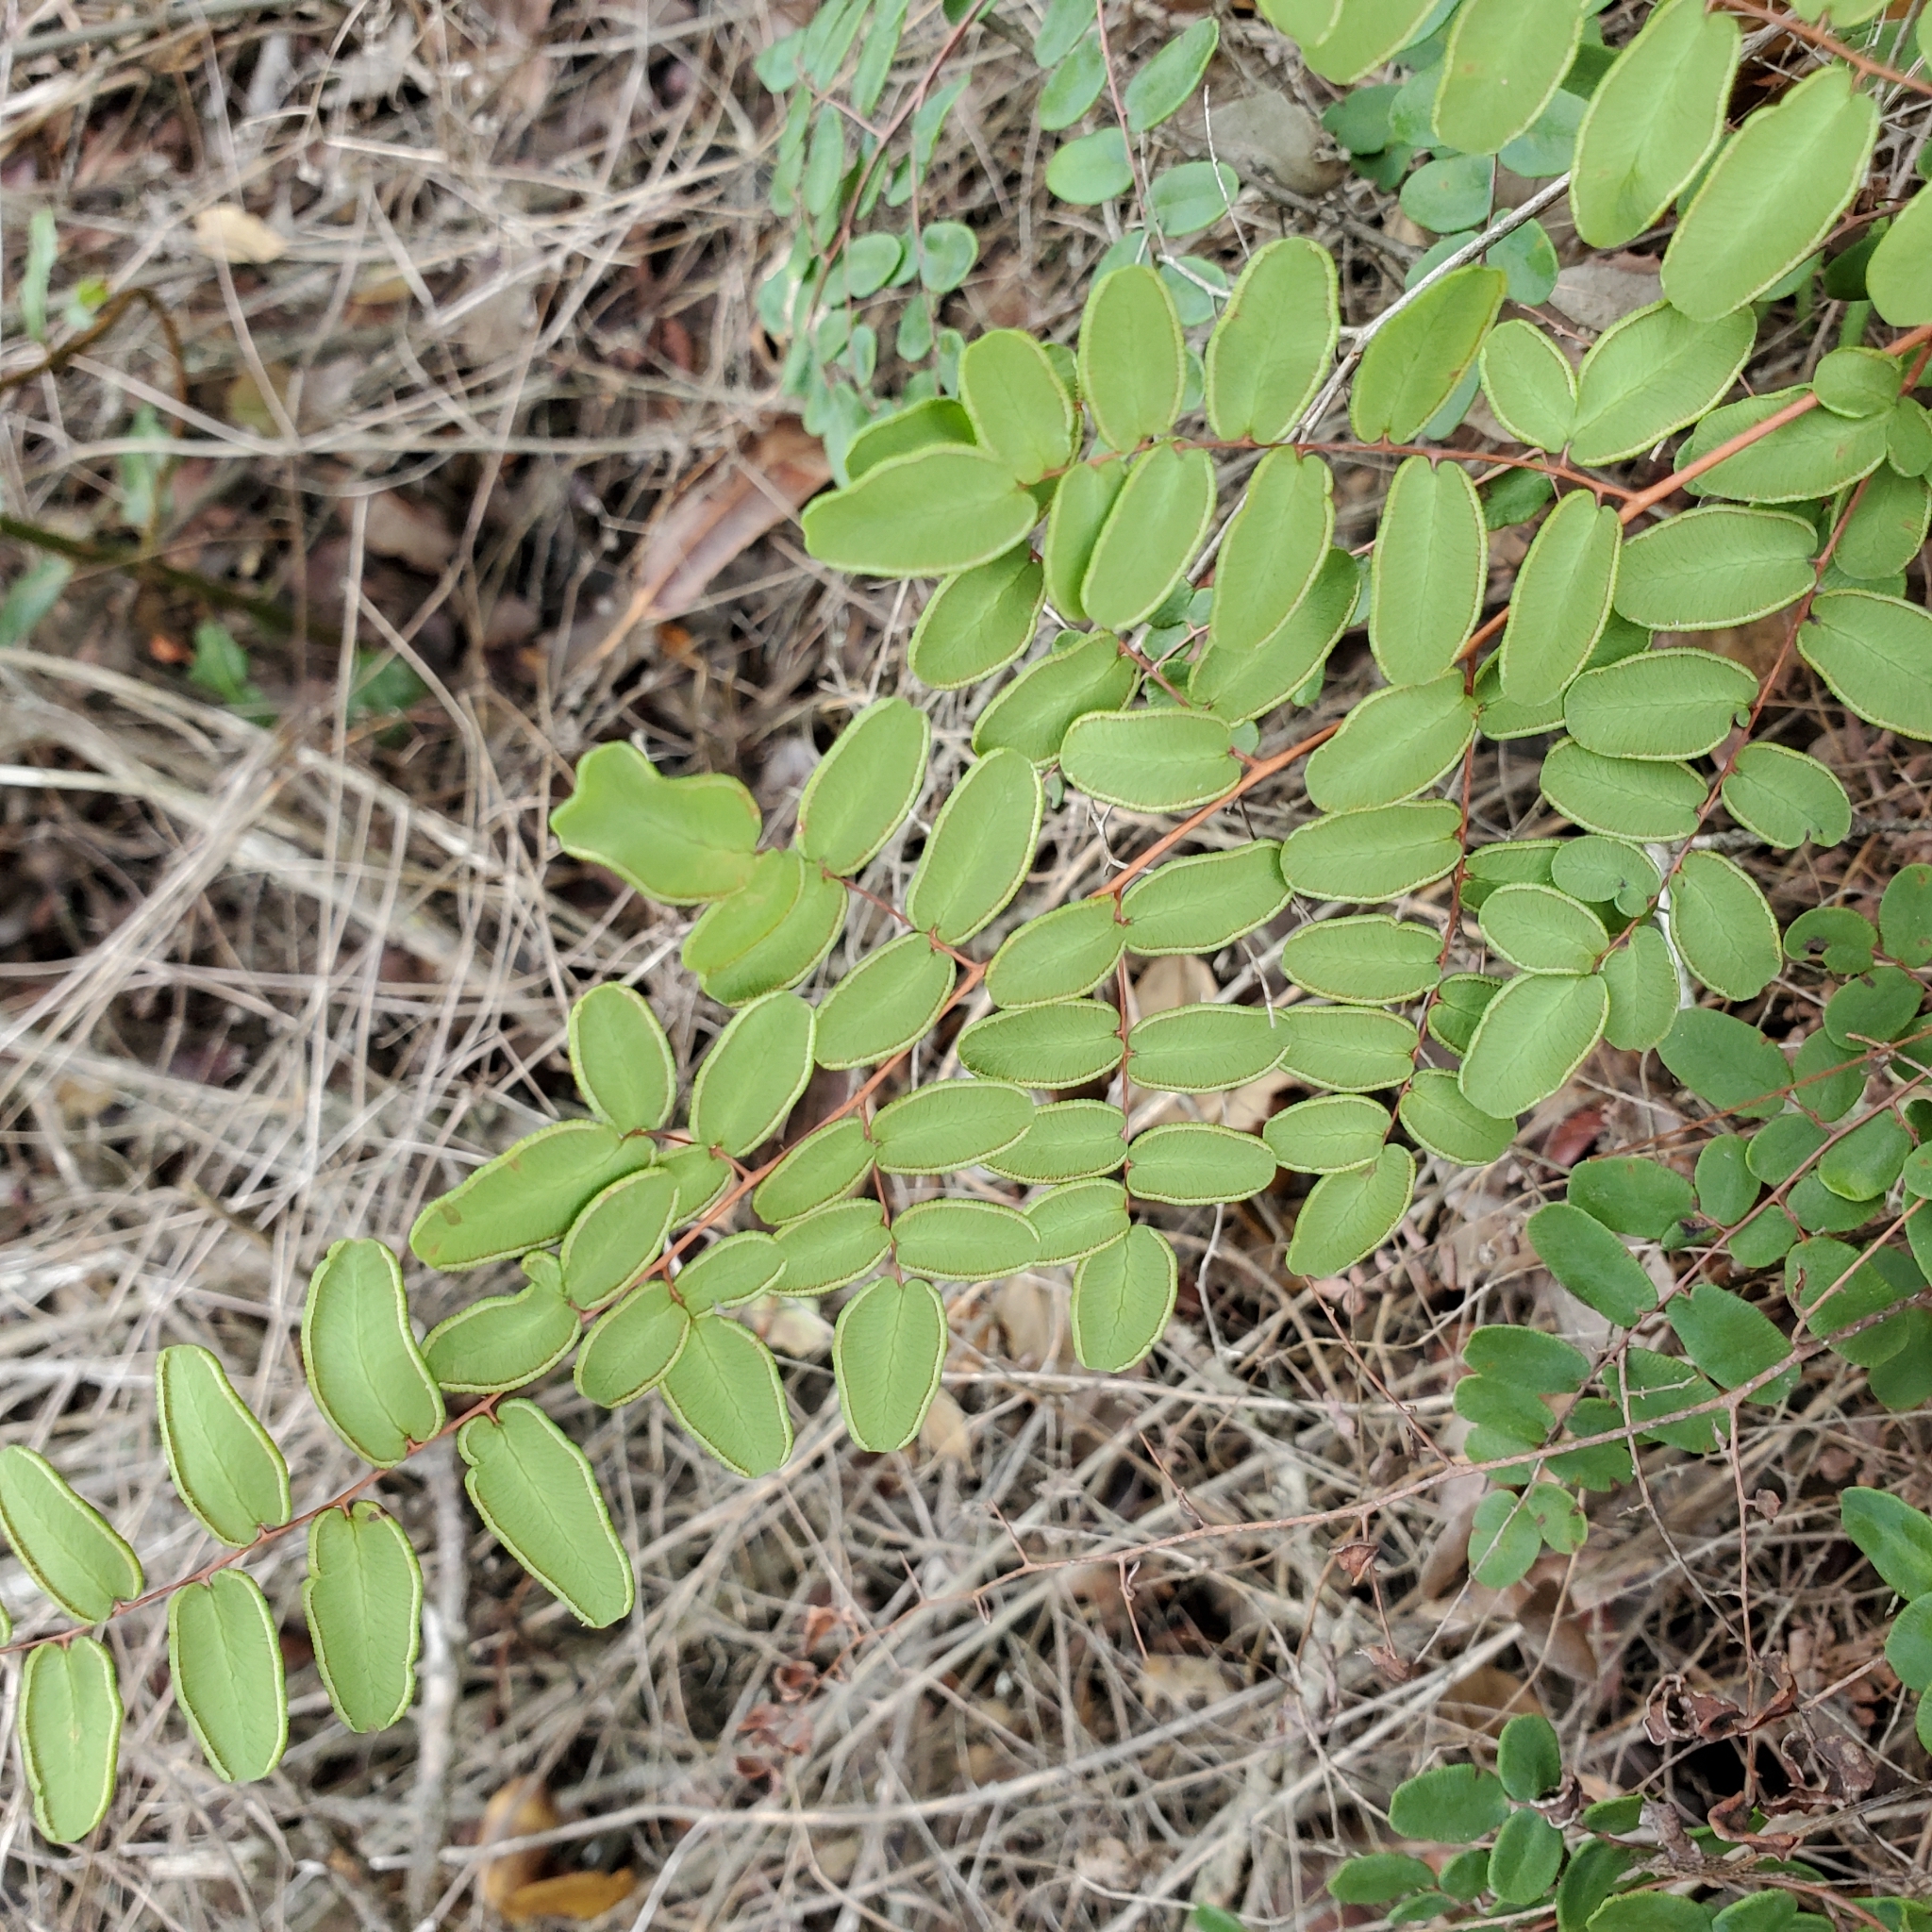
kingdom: Plantae
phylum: Tracheophyta
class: Polypodiopsida
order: Polypodiales
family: Pteridaceae
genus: Pellaea
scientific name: Pellaea andromedifolia
